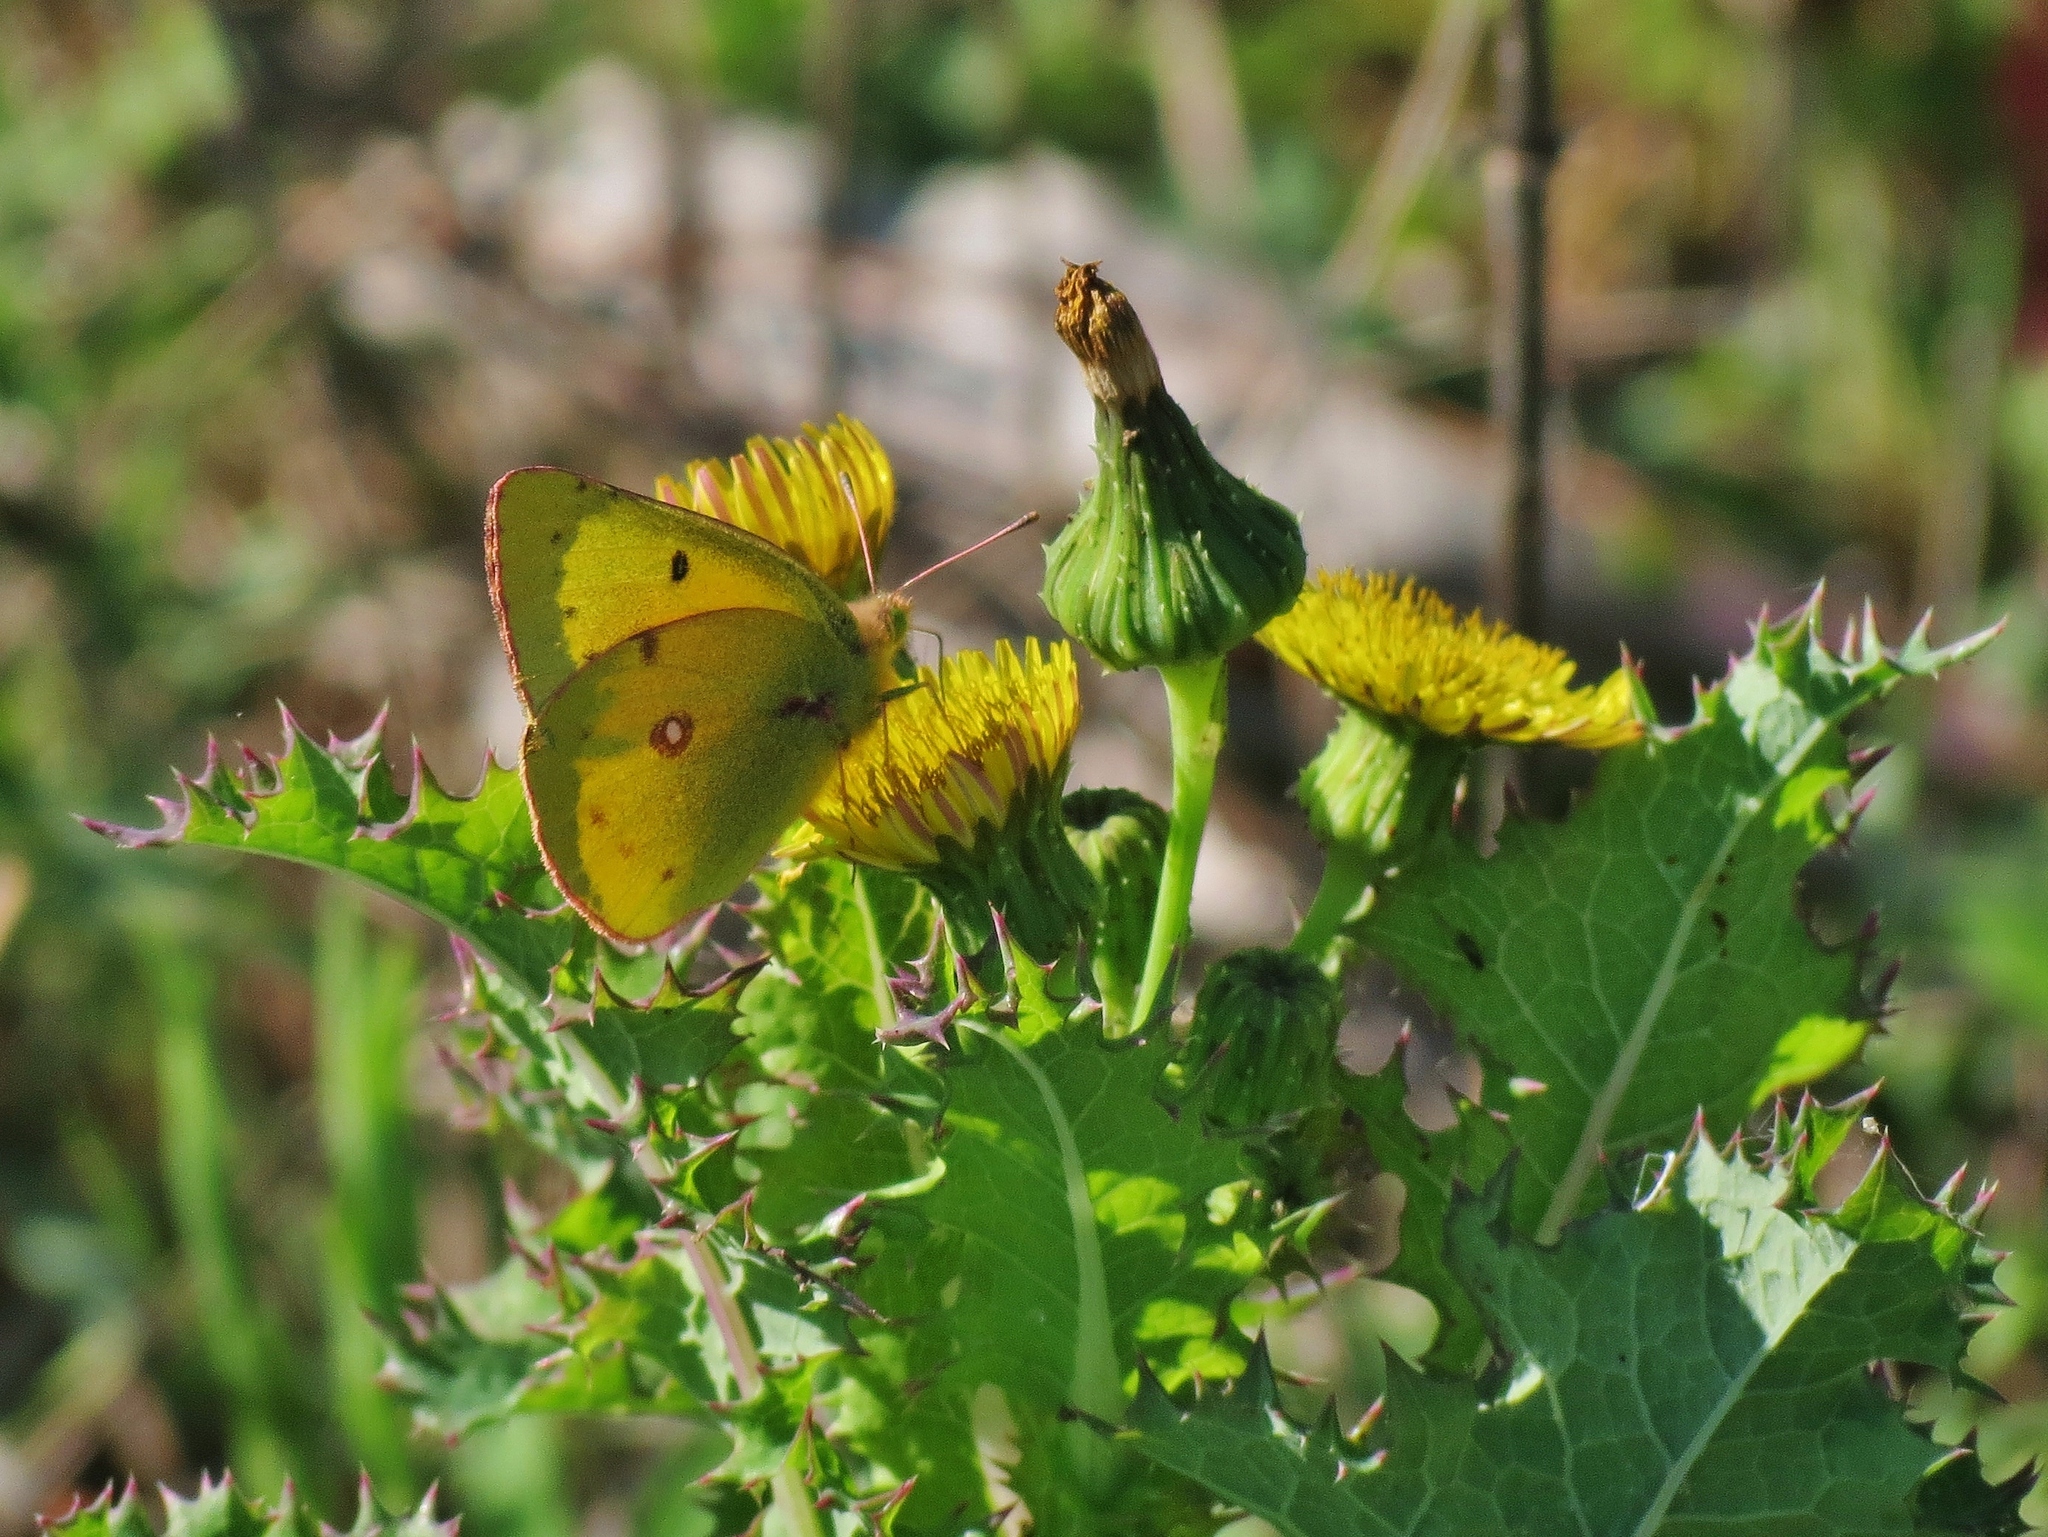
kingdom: Animalia
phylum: Arthropoda
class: Insecta
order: Lepidoptera
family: Pieridae
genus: Colias
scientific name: Colias eurytheme
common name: Alfalfa butterfly
